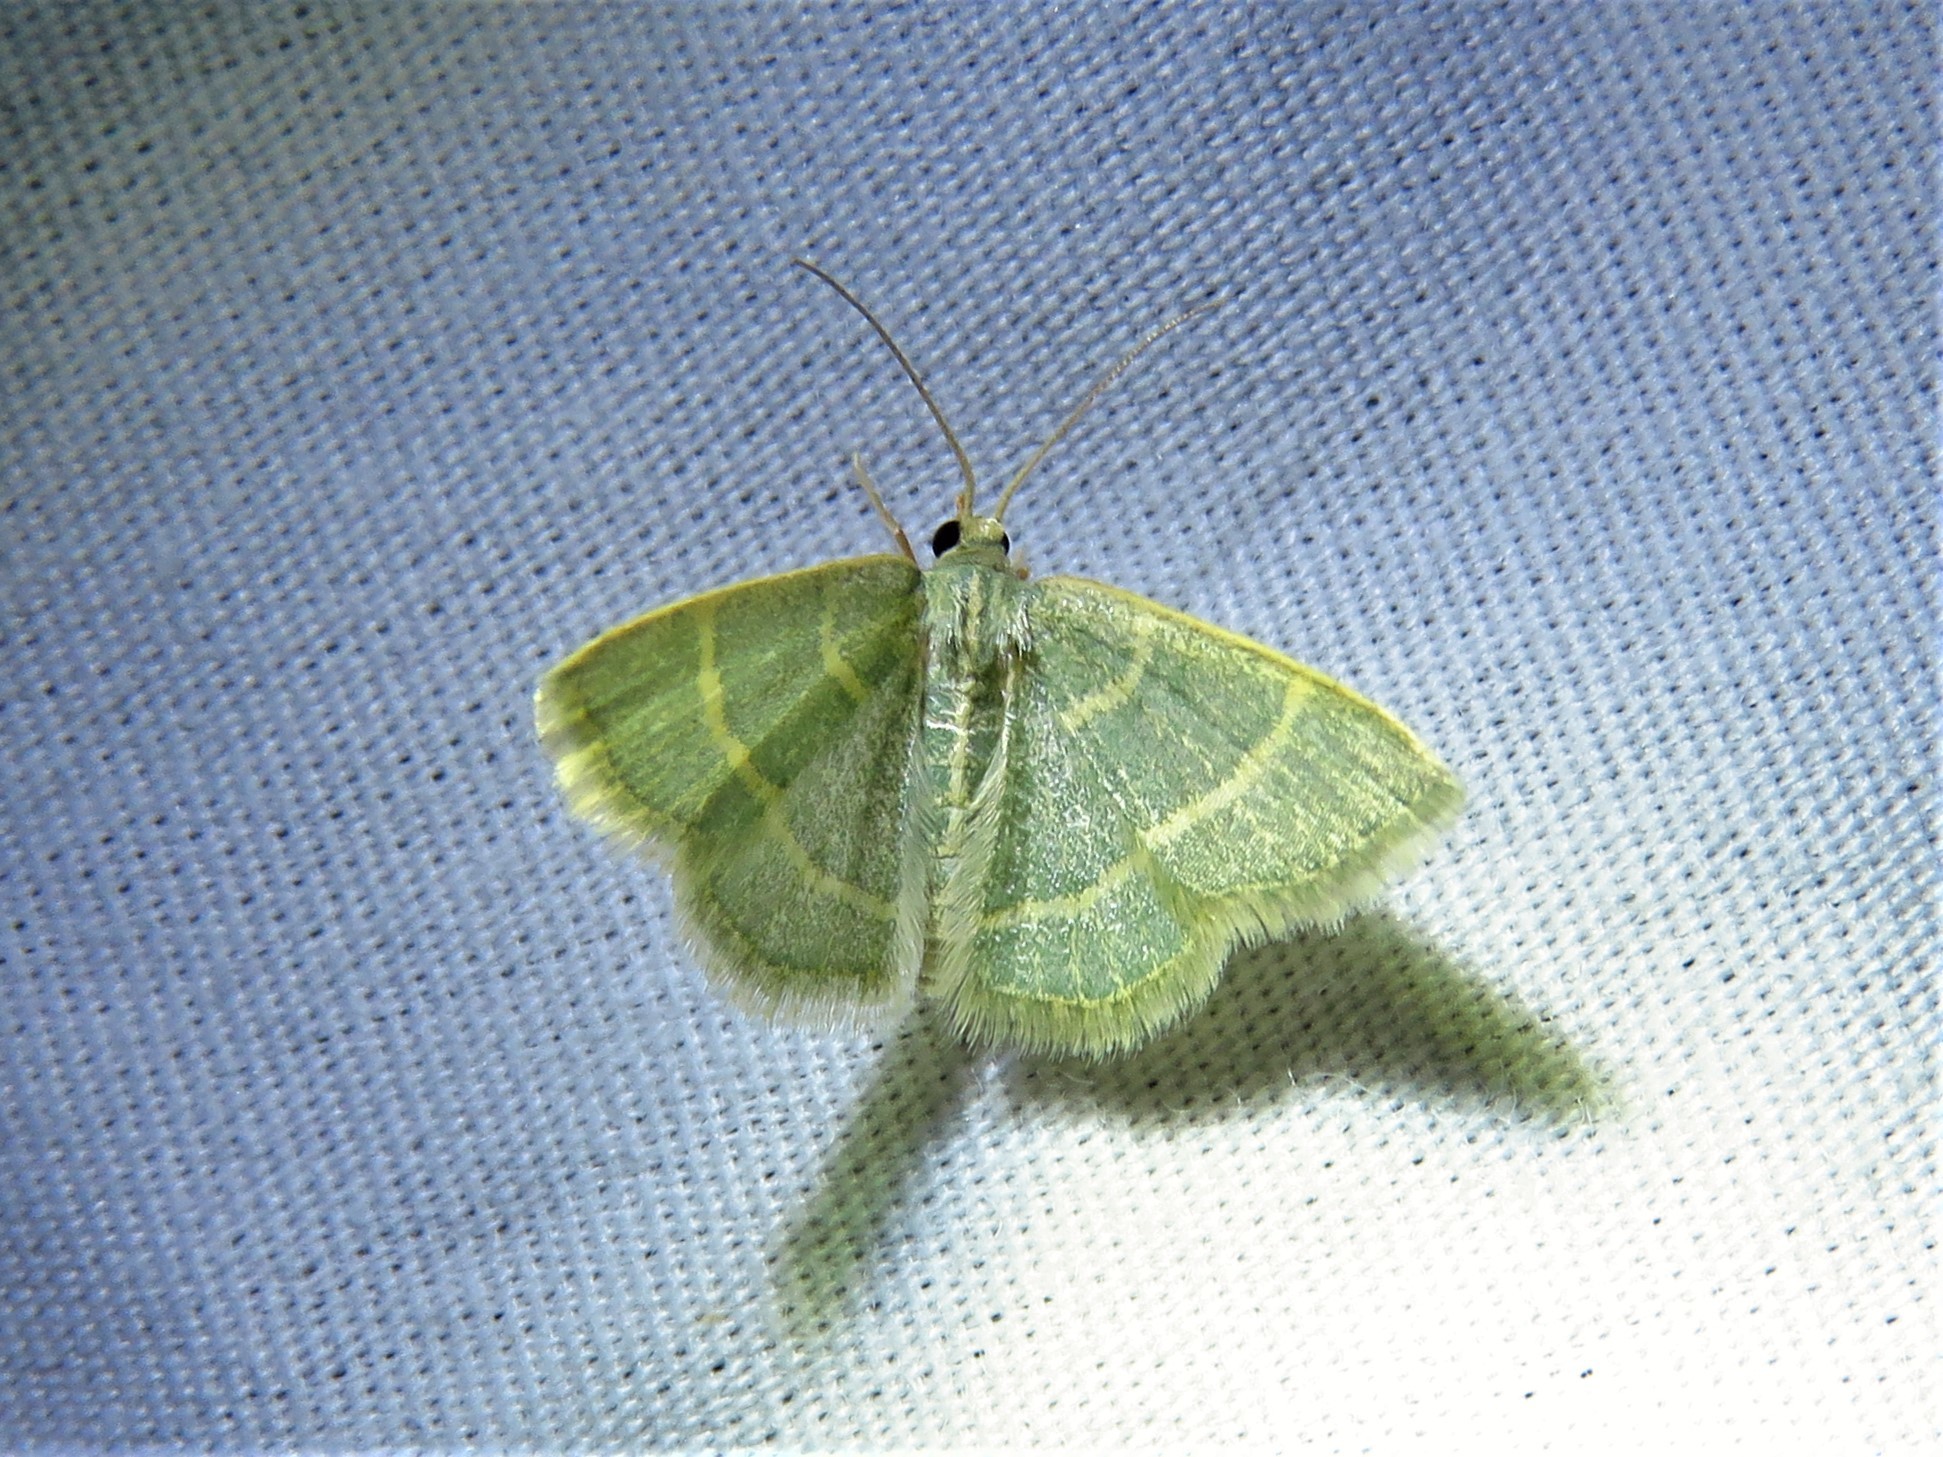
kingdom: Animalia
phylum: Arthropoda
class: Insecta
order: Lepidoptera
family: Geometridae
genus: Chlorochlamys
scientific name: Chlorochlamys chloroleucaria
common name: Blackberry looper
